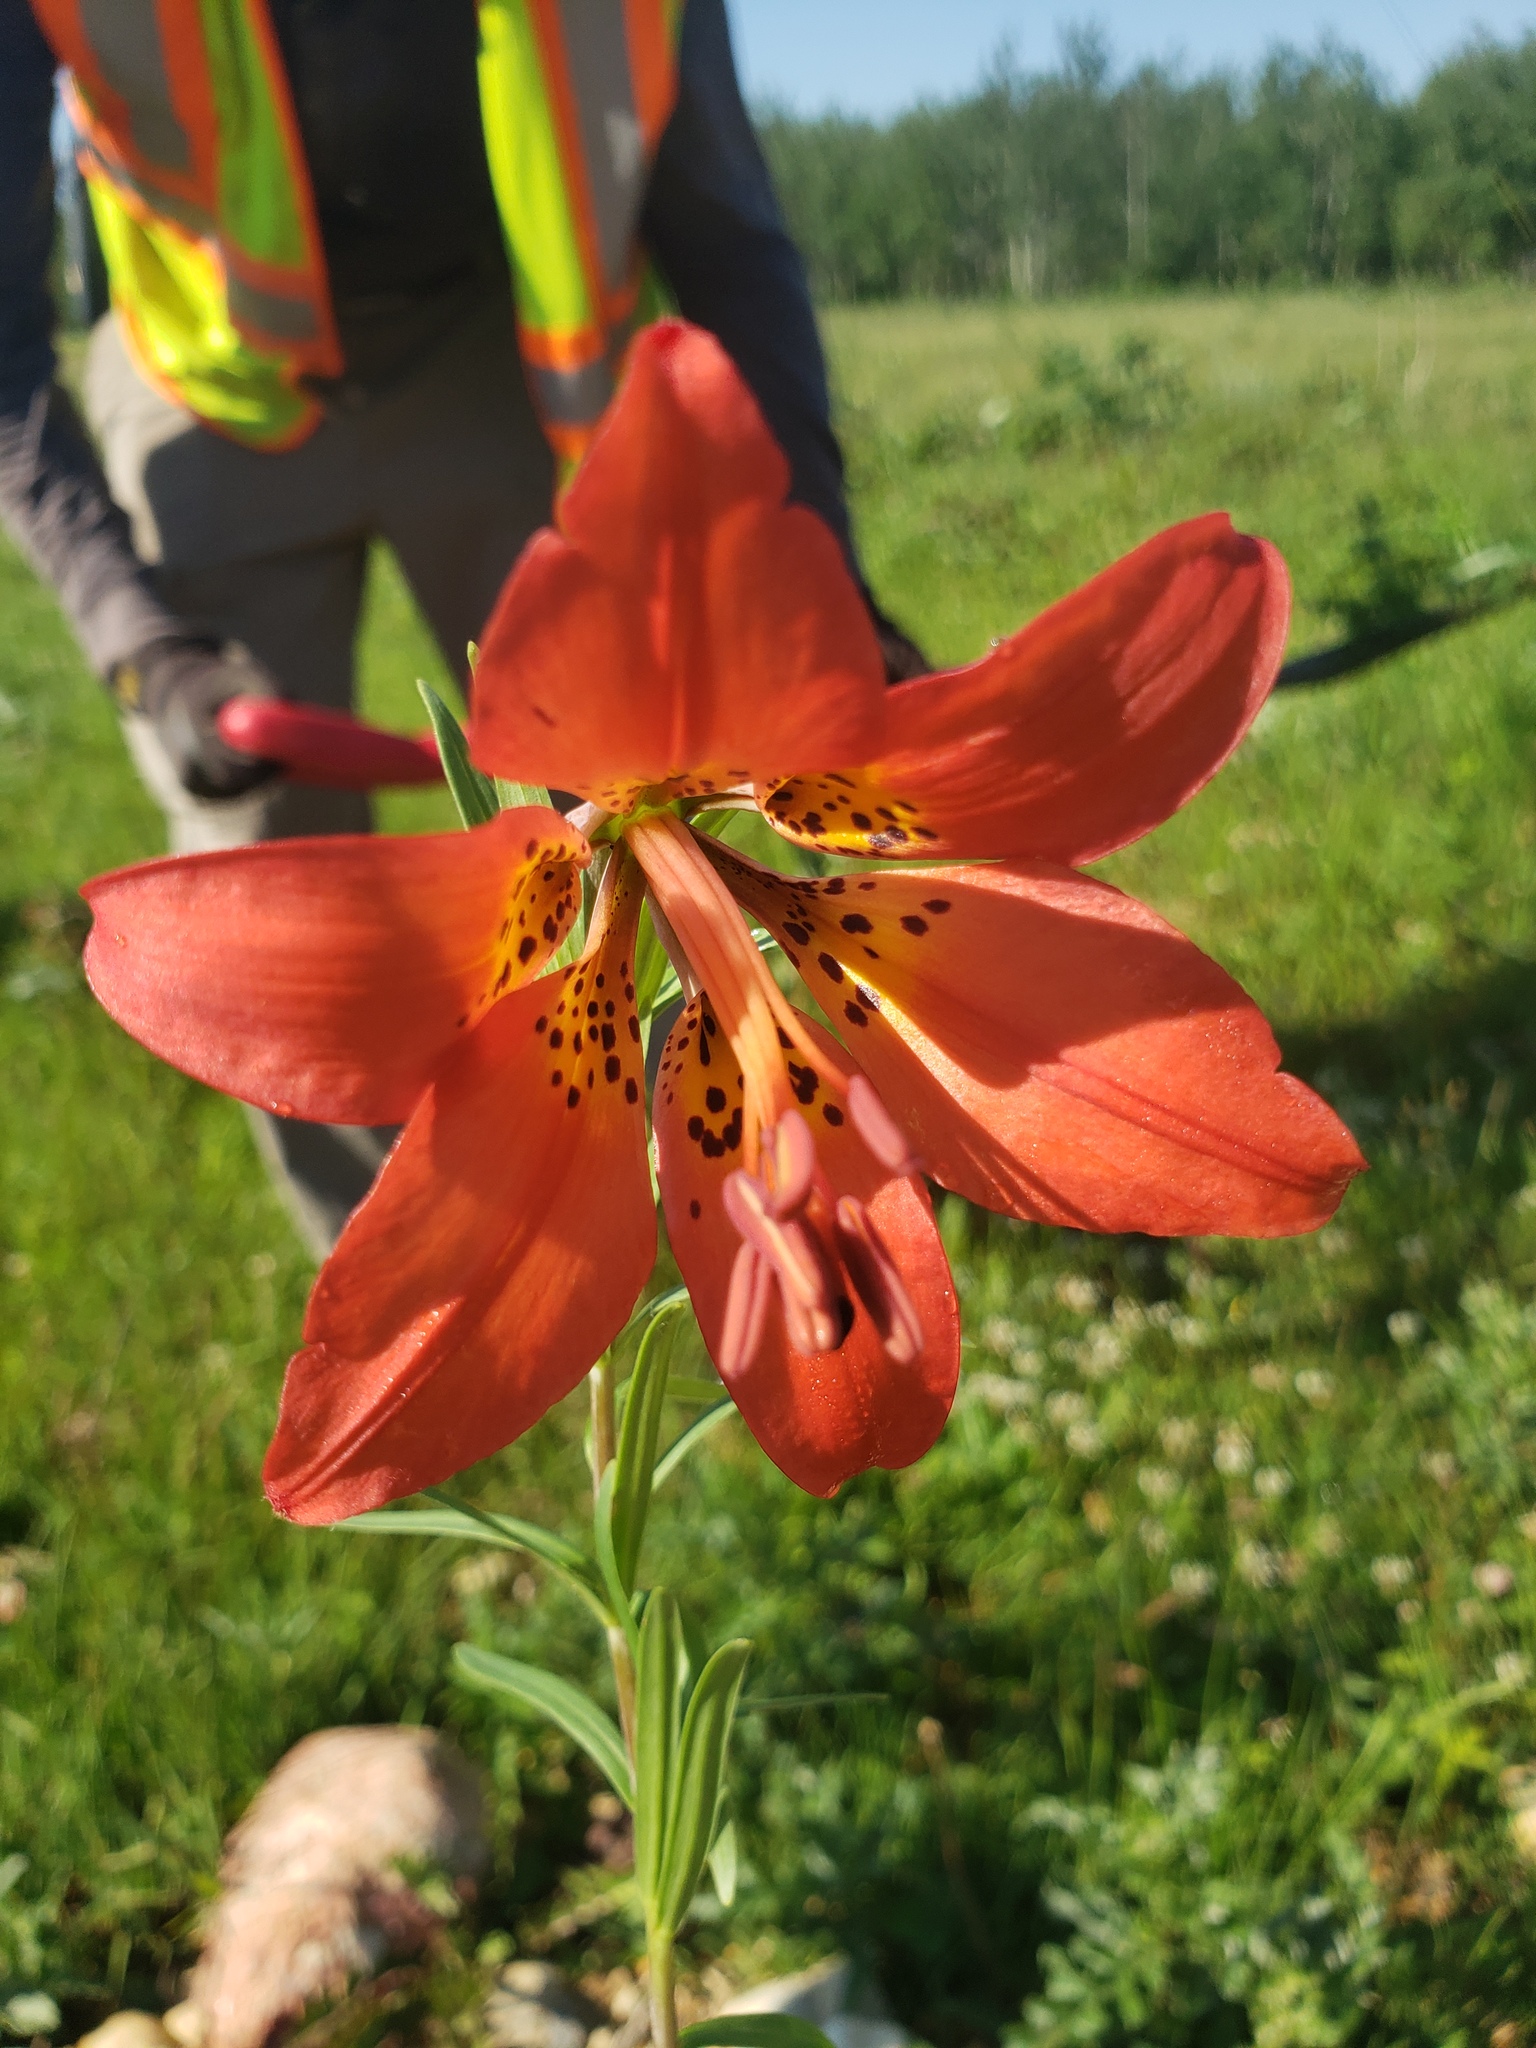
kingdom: Plantae
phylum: Tracheophyta
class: Liliopsida
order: Liliales
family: Liliaceae
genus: Lilium
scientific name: Lilium philadelphicum
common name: Red lily
